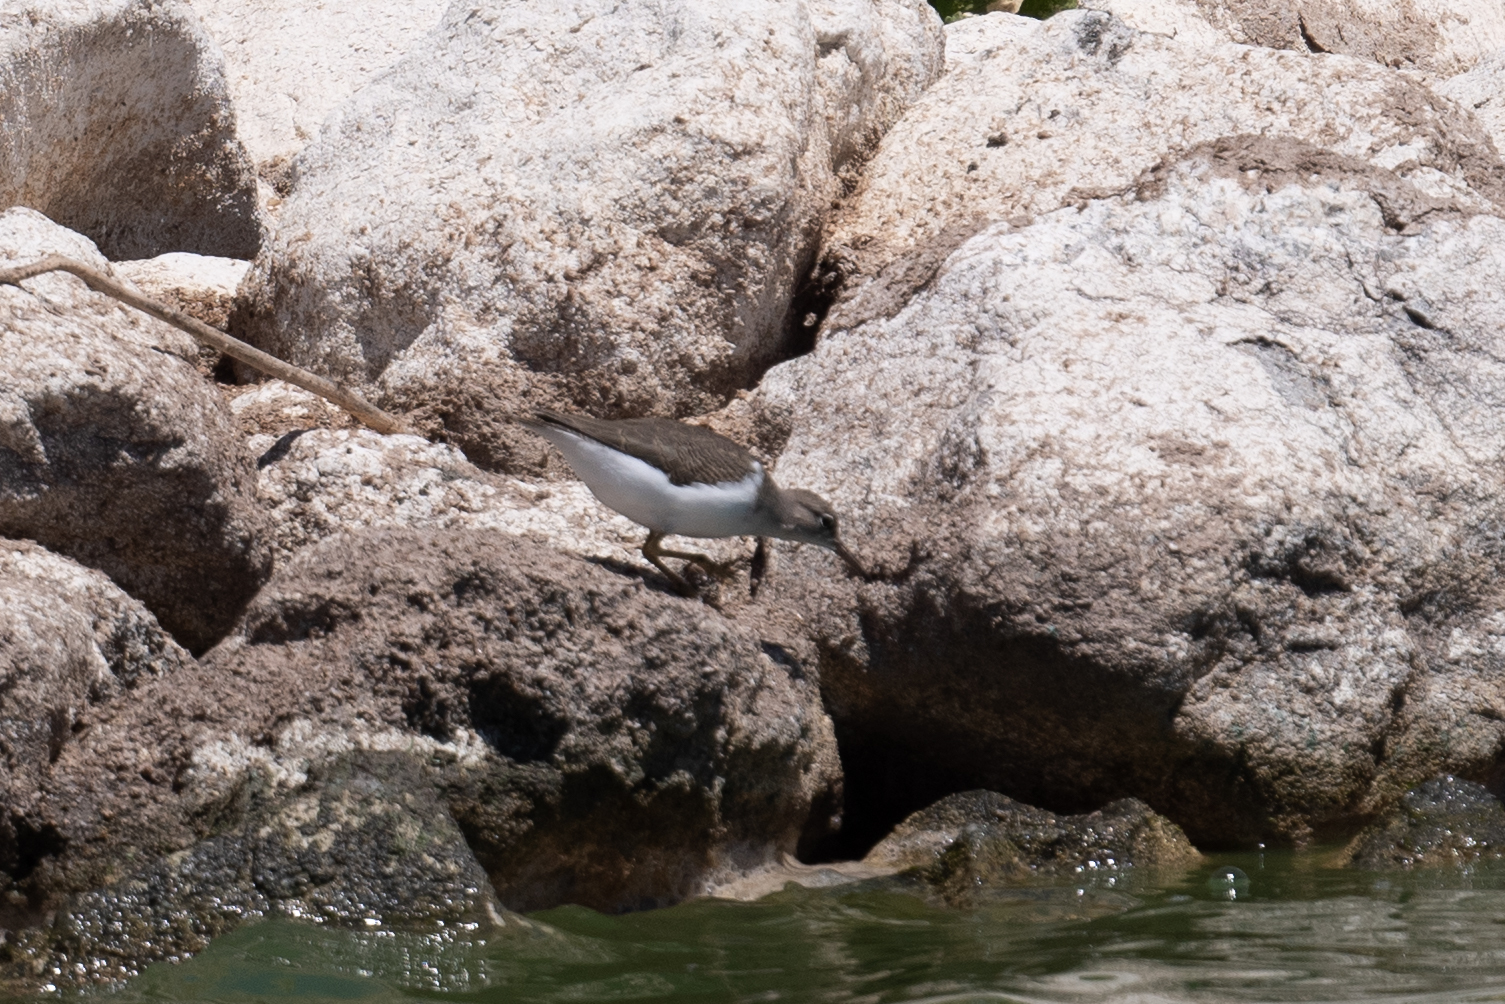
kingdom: Animalia
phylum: Chordata
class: Aves
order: Charadriiformes
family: Scolopacidae
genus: Actitis
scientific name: Actitis macularius
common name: Spotted sandpiper
